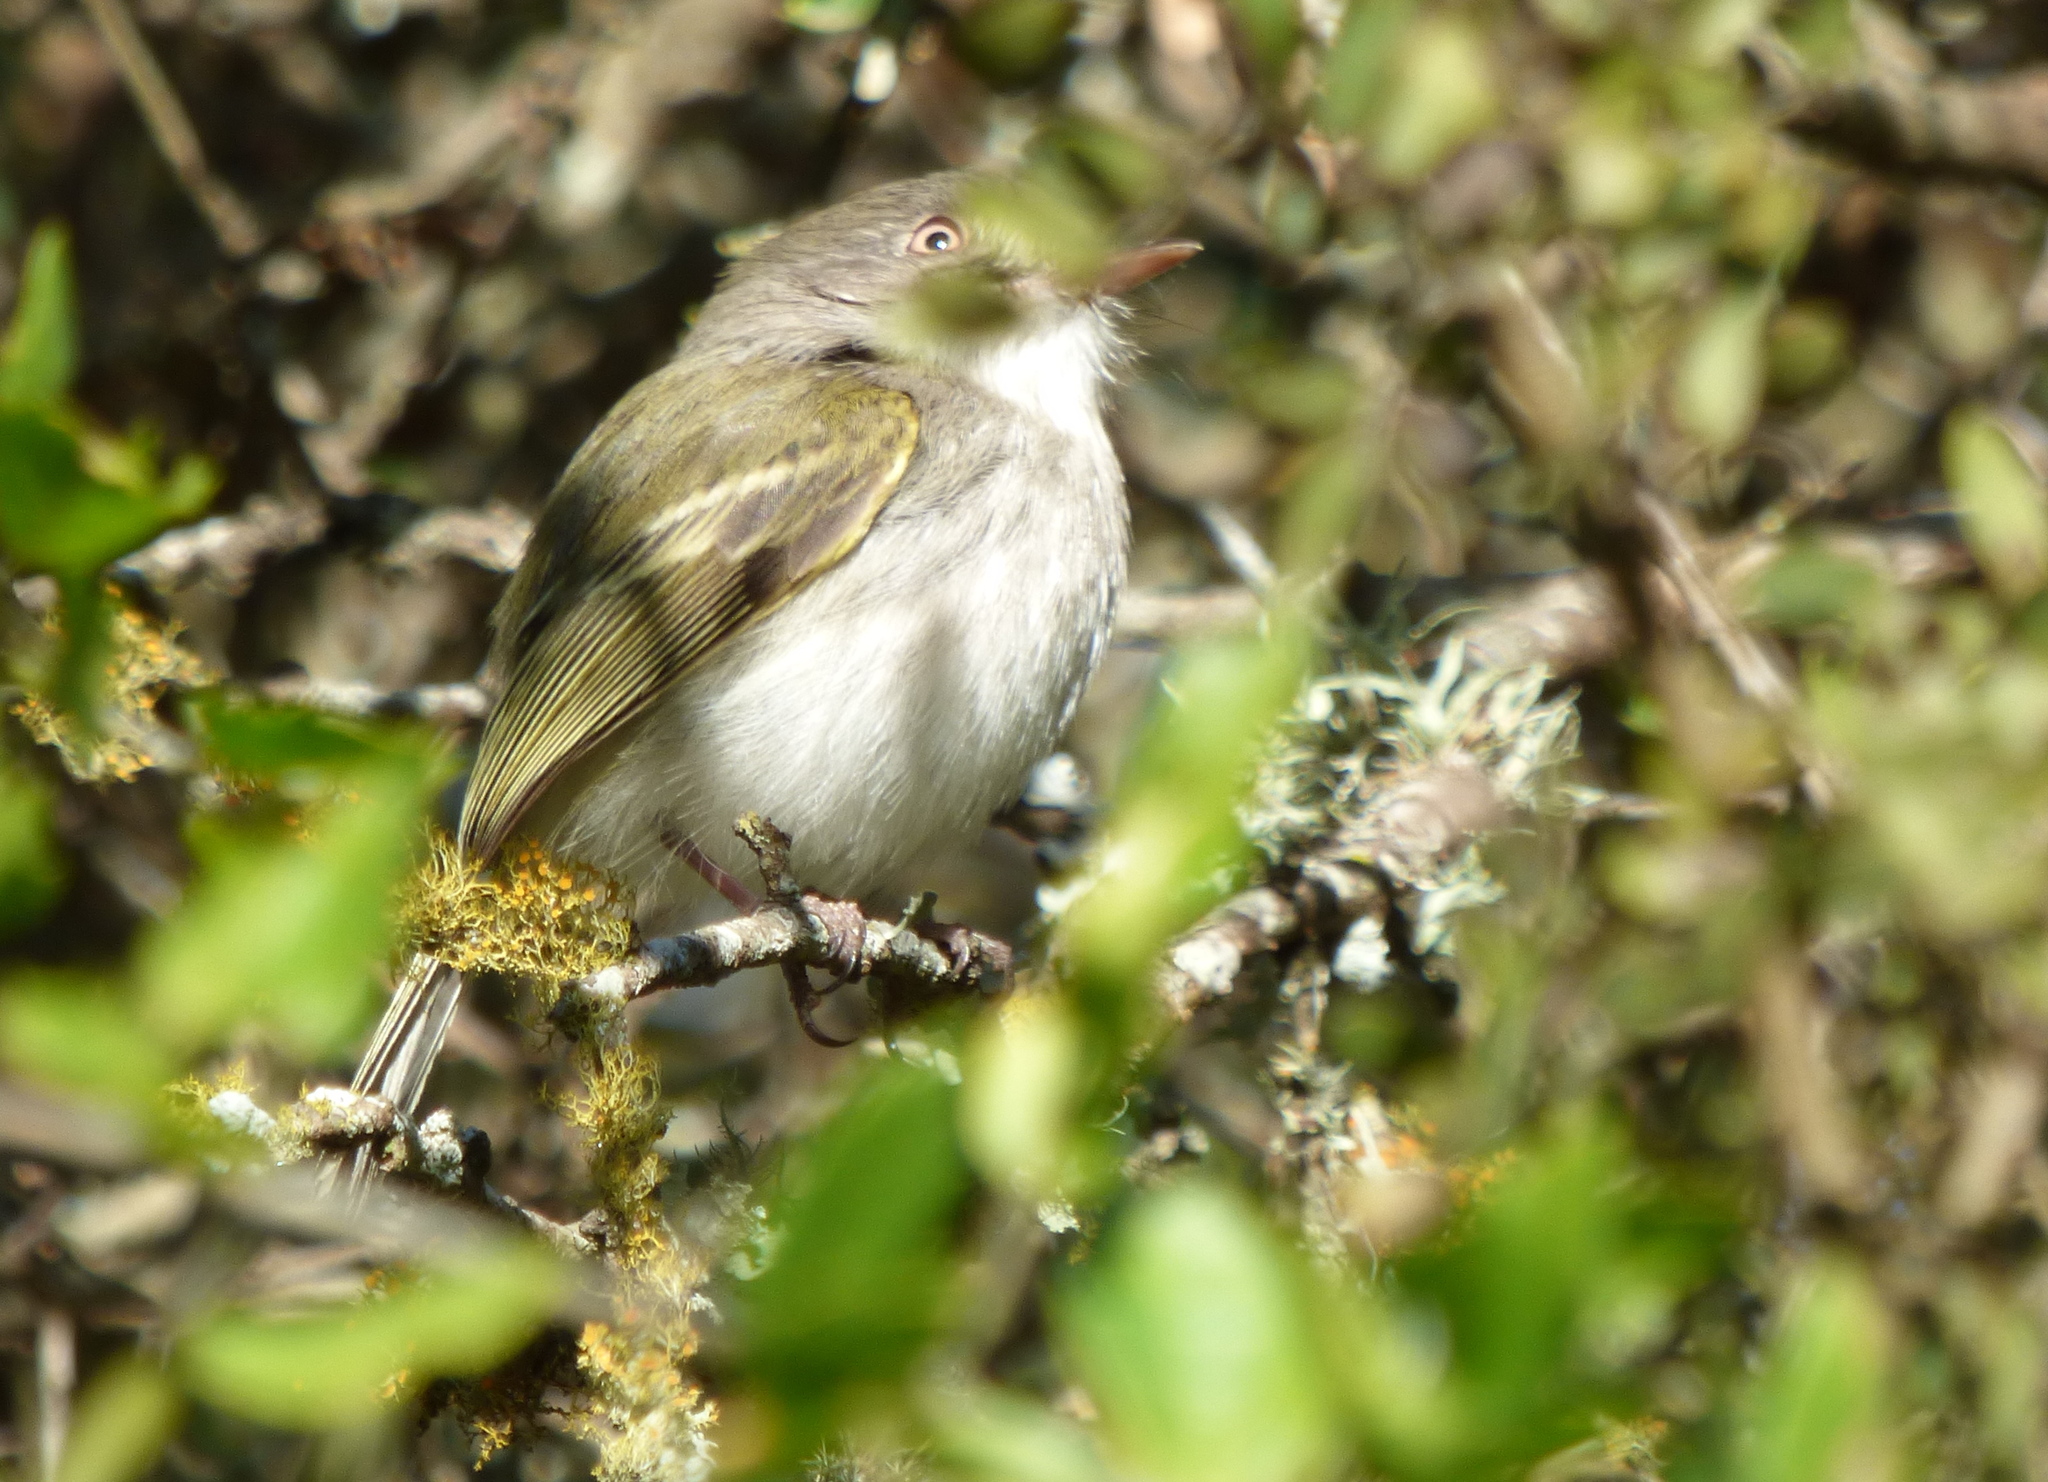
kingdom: Animalia
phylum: Chordata
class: Aves
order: Passeriformes
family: Tyrannidae
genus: Hemitriccus
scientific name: Hemitriccus margaritaceiventer
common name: Pearly-vented tody-tyrant
